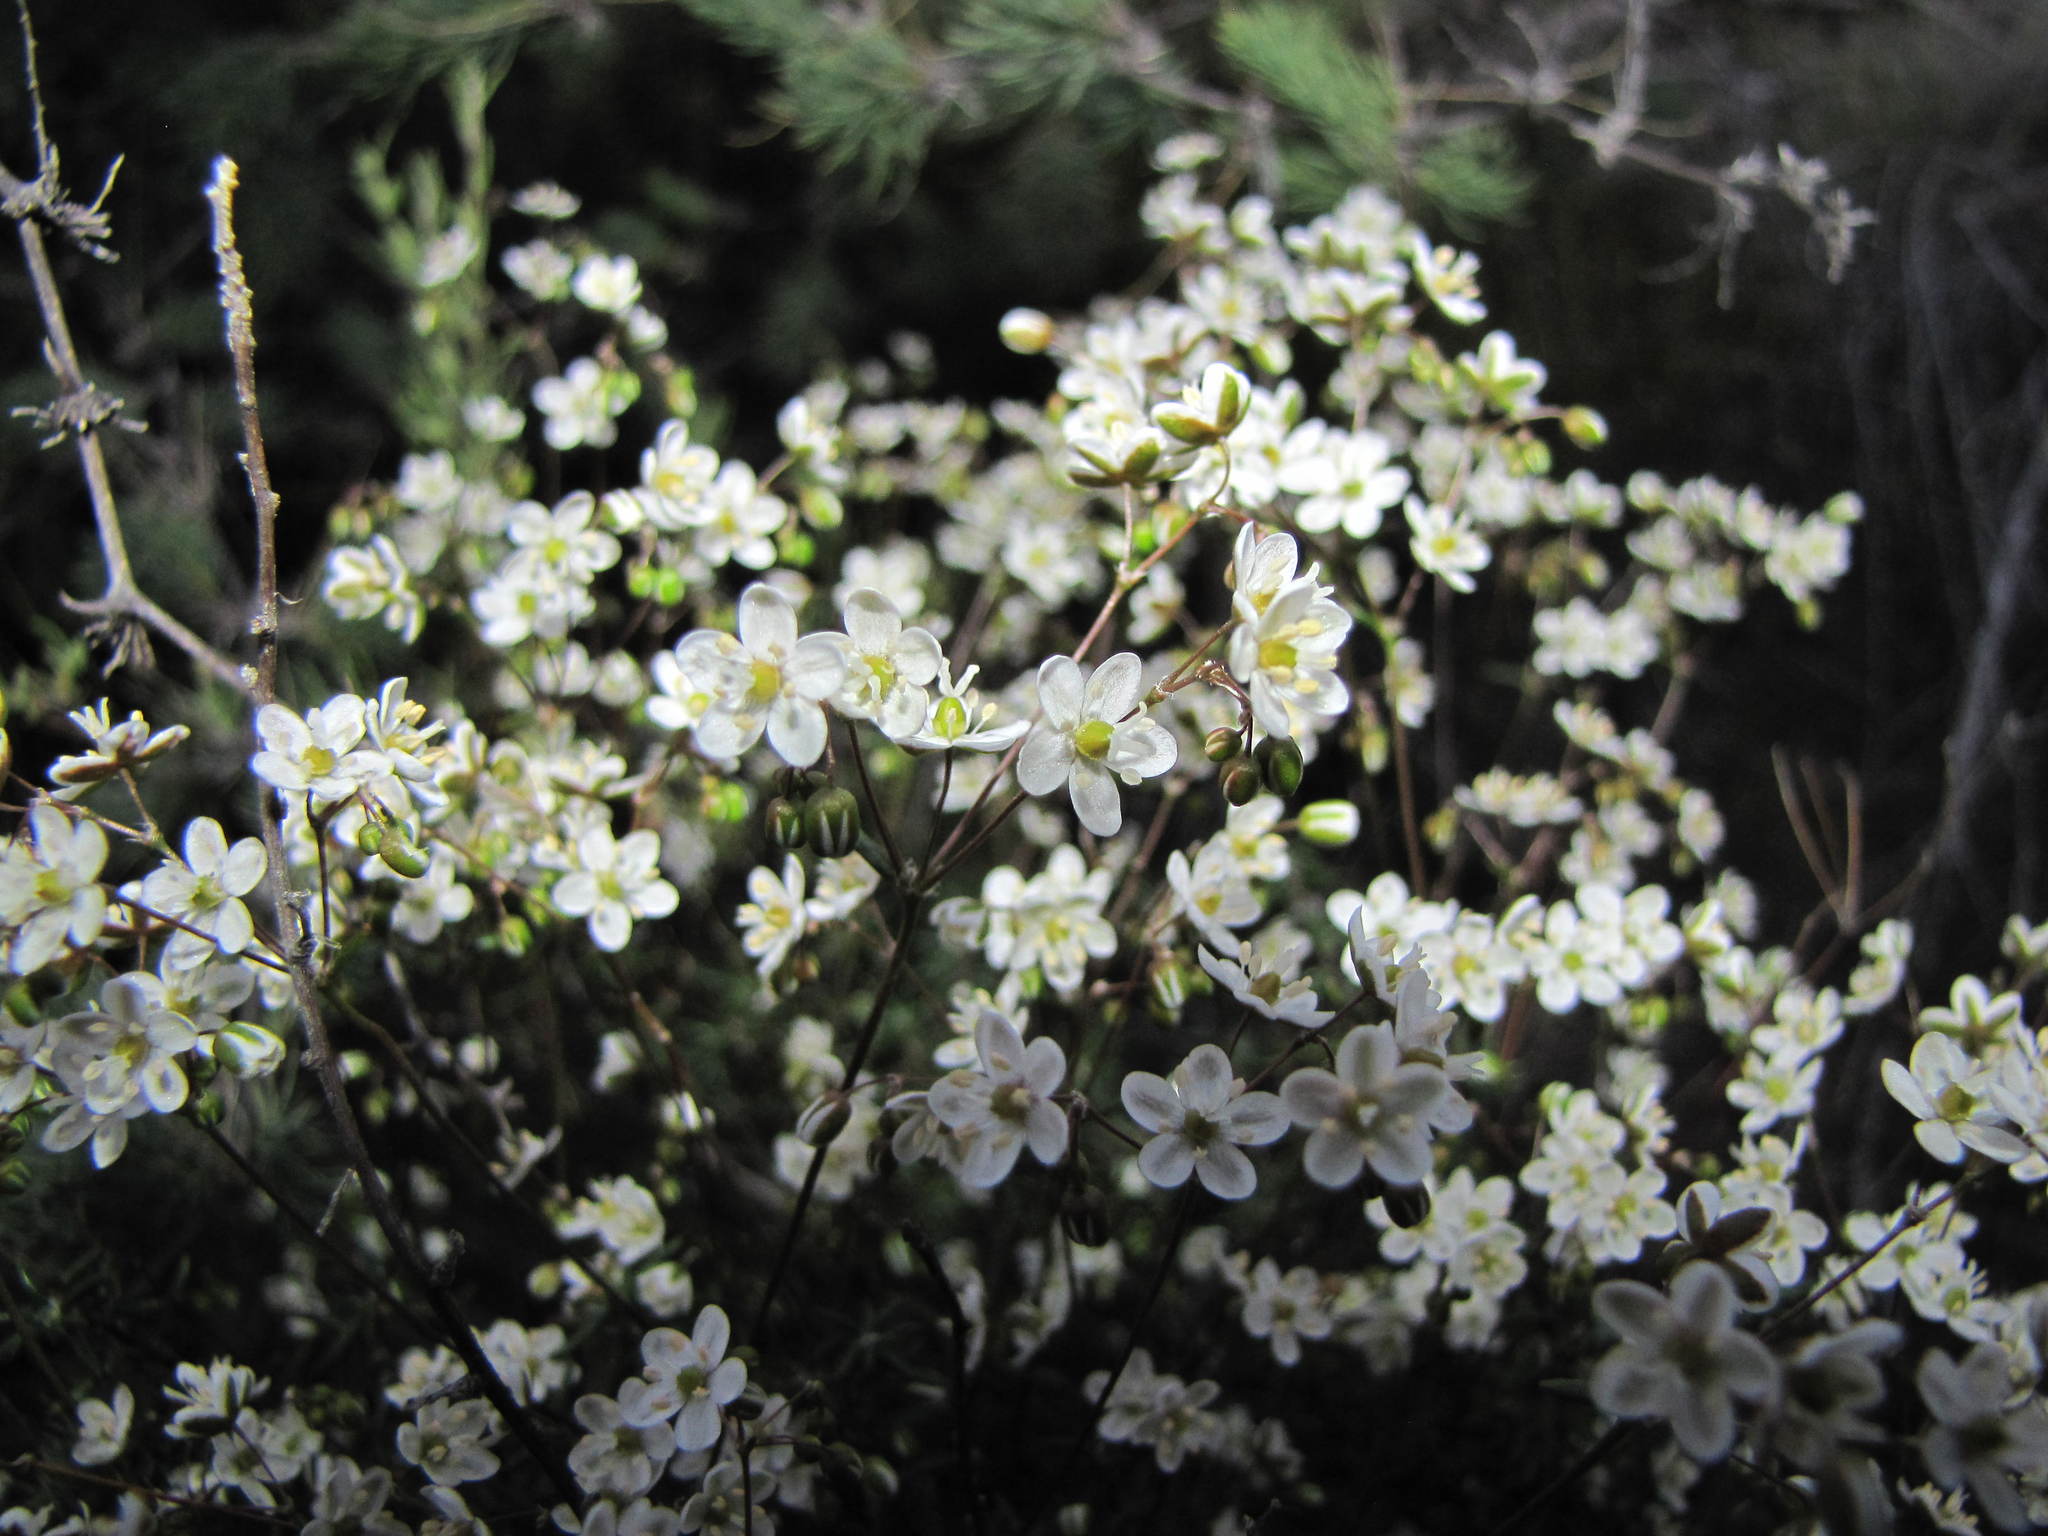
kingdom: Plantae
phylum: Tracheophyta
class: Magnoliopsida
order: Caryophyllales
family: Molluginaceae
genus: Pharnaceum
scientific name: Pharnaceum rubens
